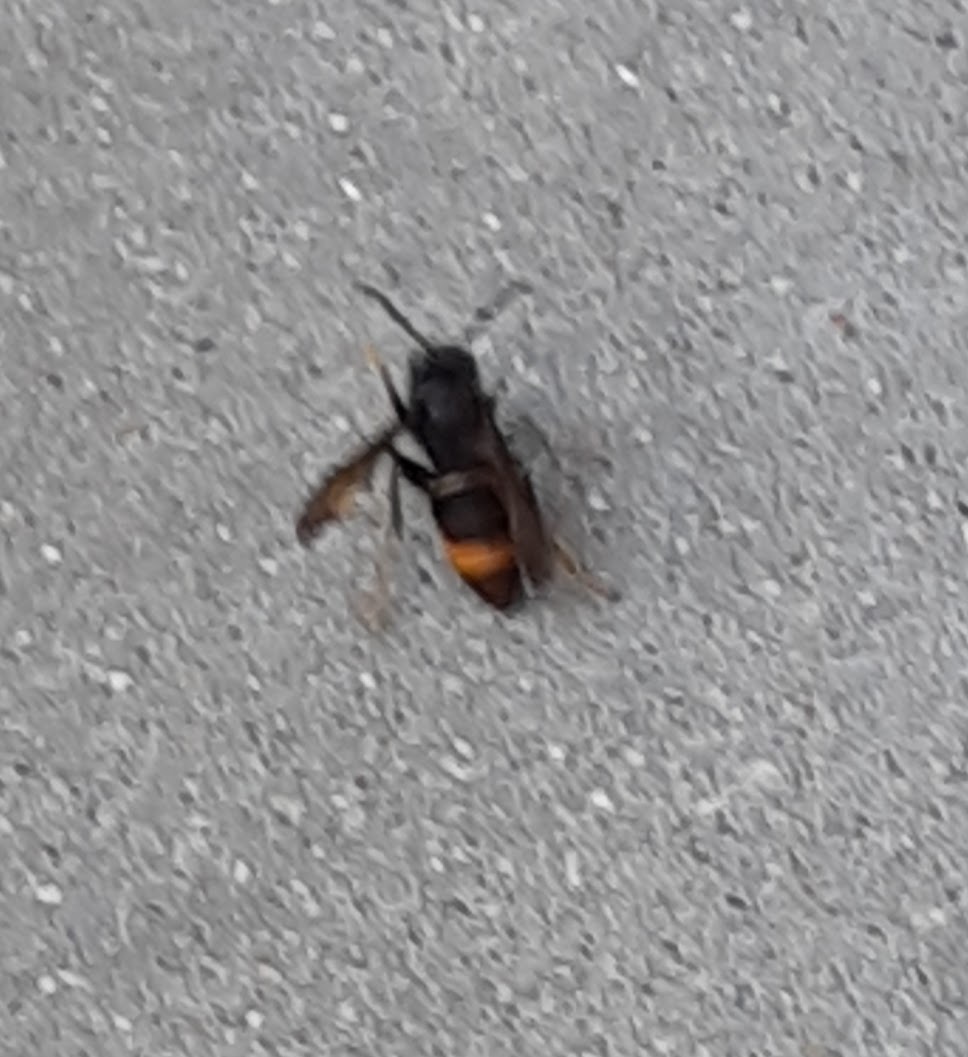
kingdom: Animalia
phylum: Arthropoda
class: Insecta
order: Hymenoptera
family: Vespidae
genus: Vespa
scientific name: Vespa velutina
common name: Asian hornet
